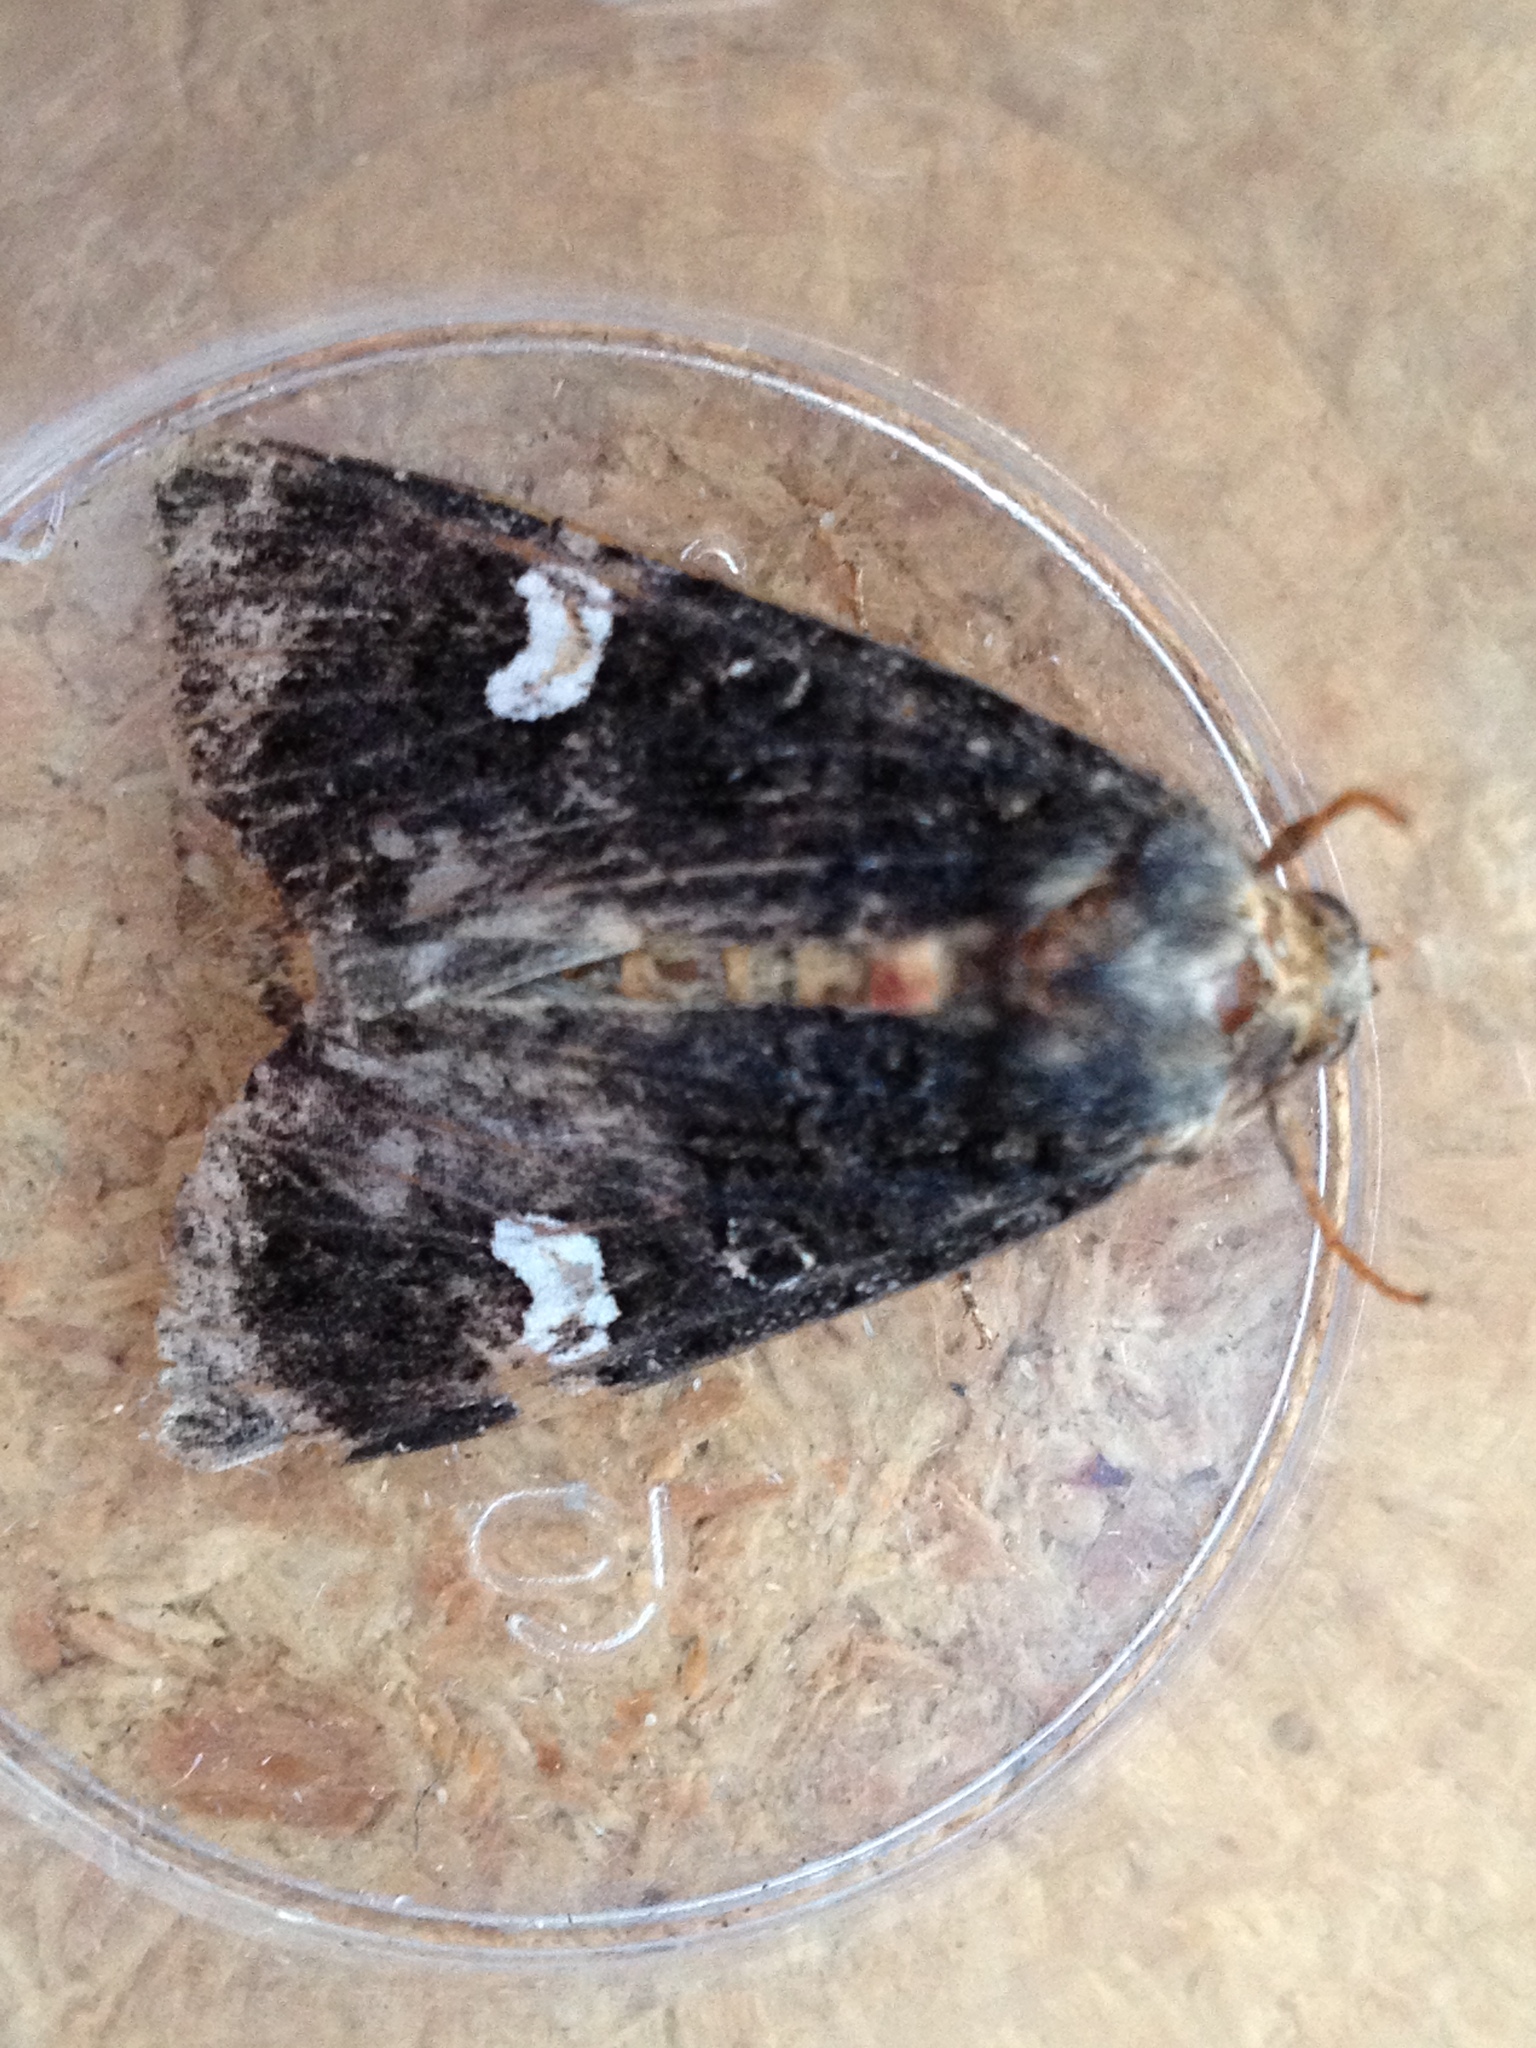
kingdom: Animalia
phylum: Arthropoda
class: Insecta
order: Lepidoptera
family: Noctuidae
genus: Melanchra
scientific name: Melanchra persicariae
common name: Dot moth
